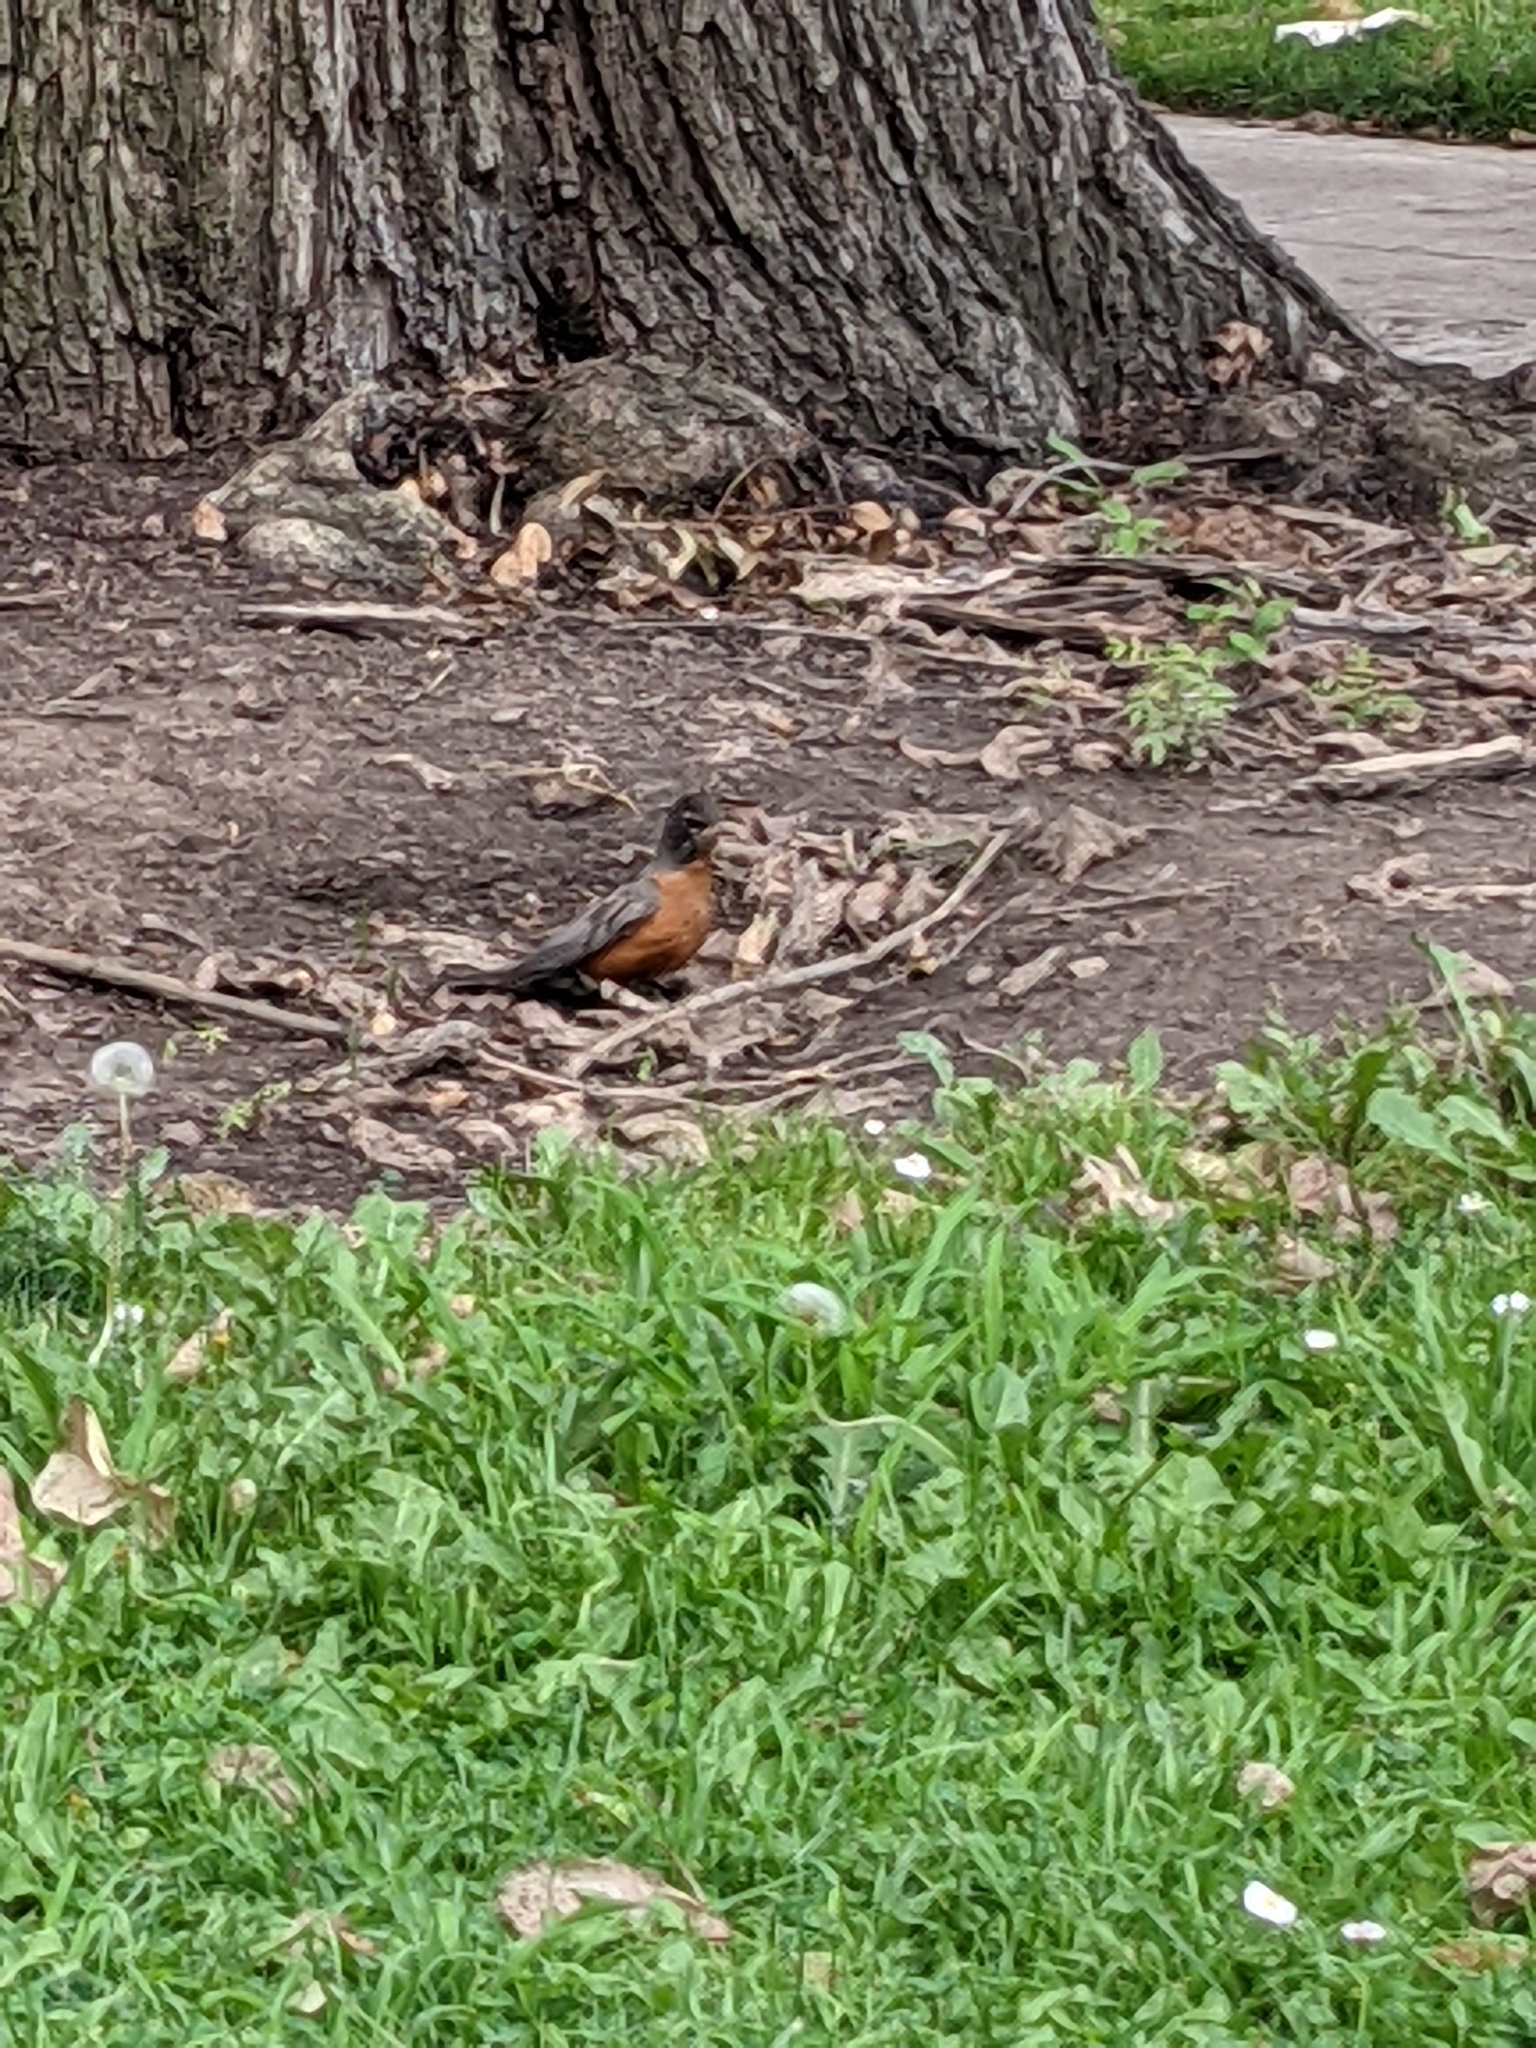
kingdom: Animalia
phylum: Chordata
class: Aves
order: Passeriformes
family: Turdidae
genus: Turdus
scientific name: Turdus migratorius
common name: American robin
